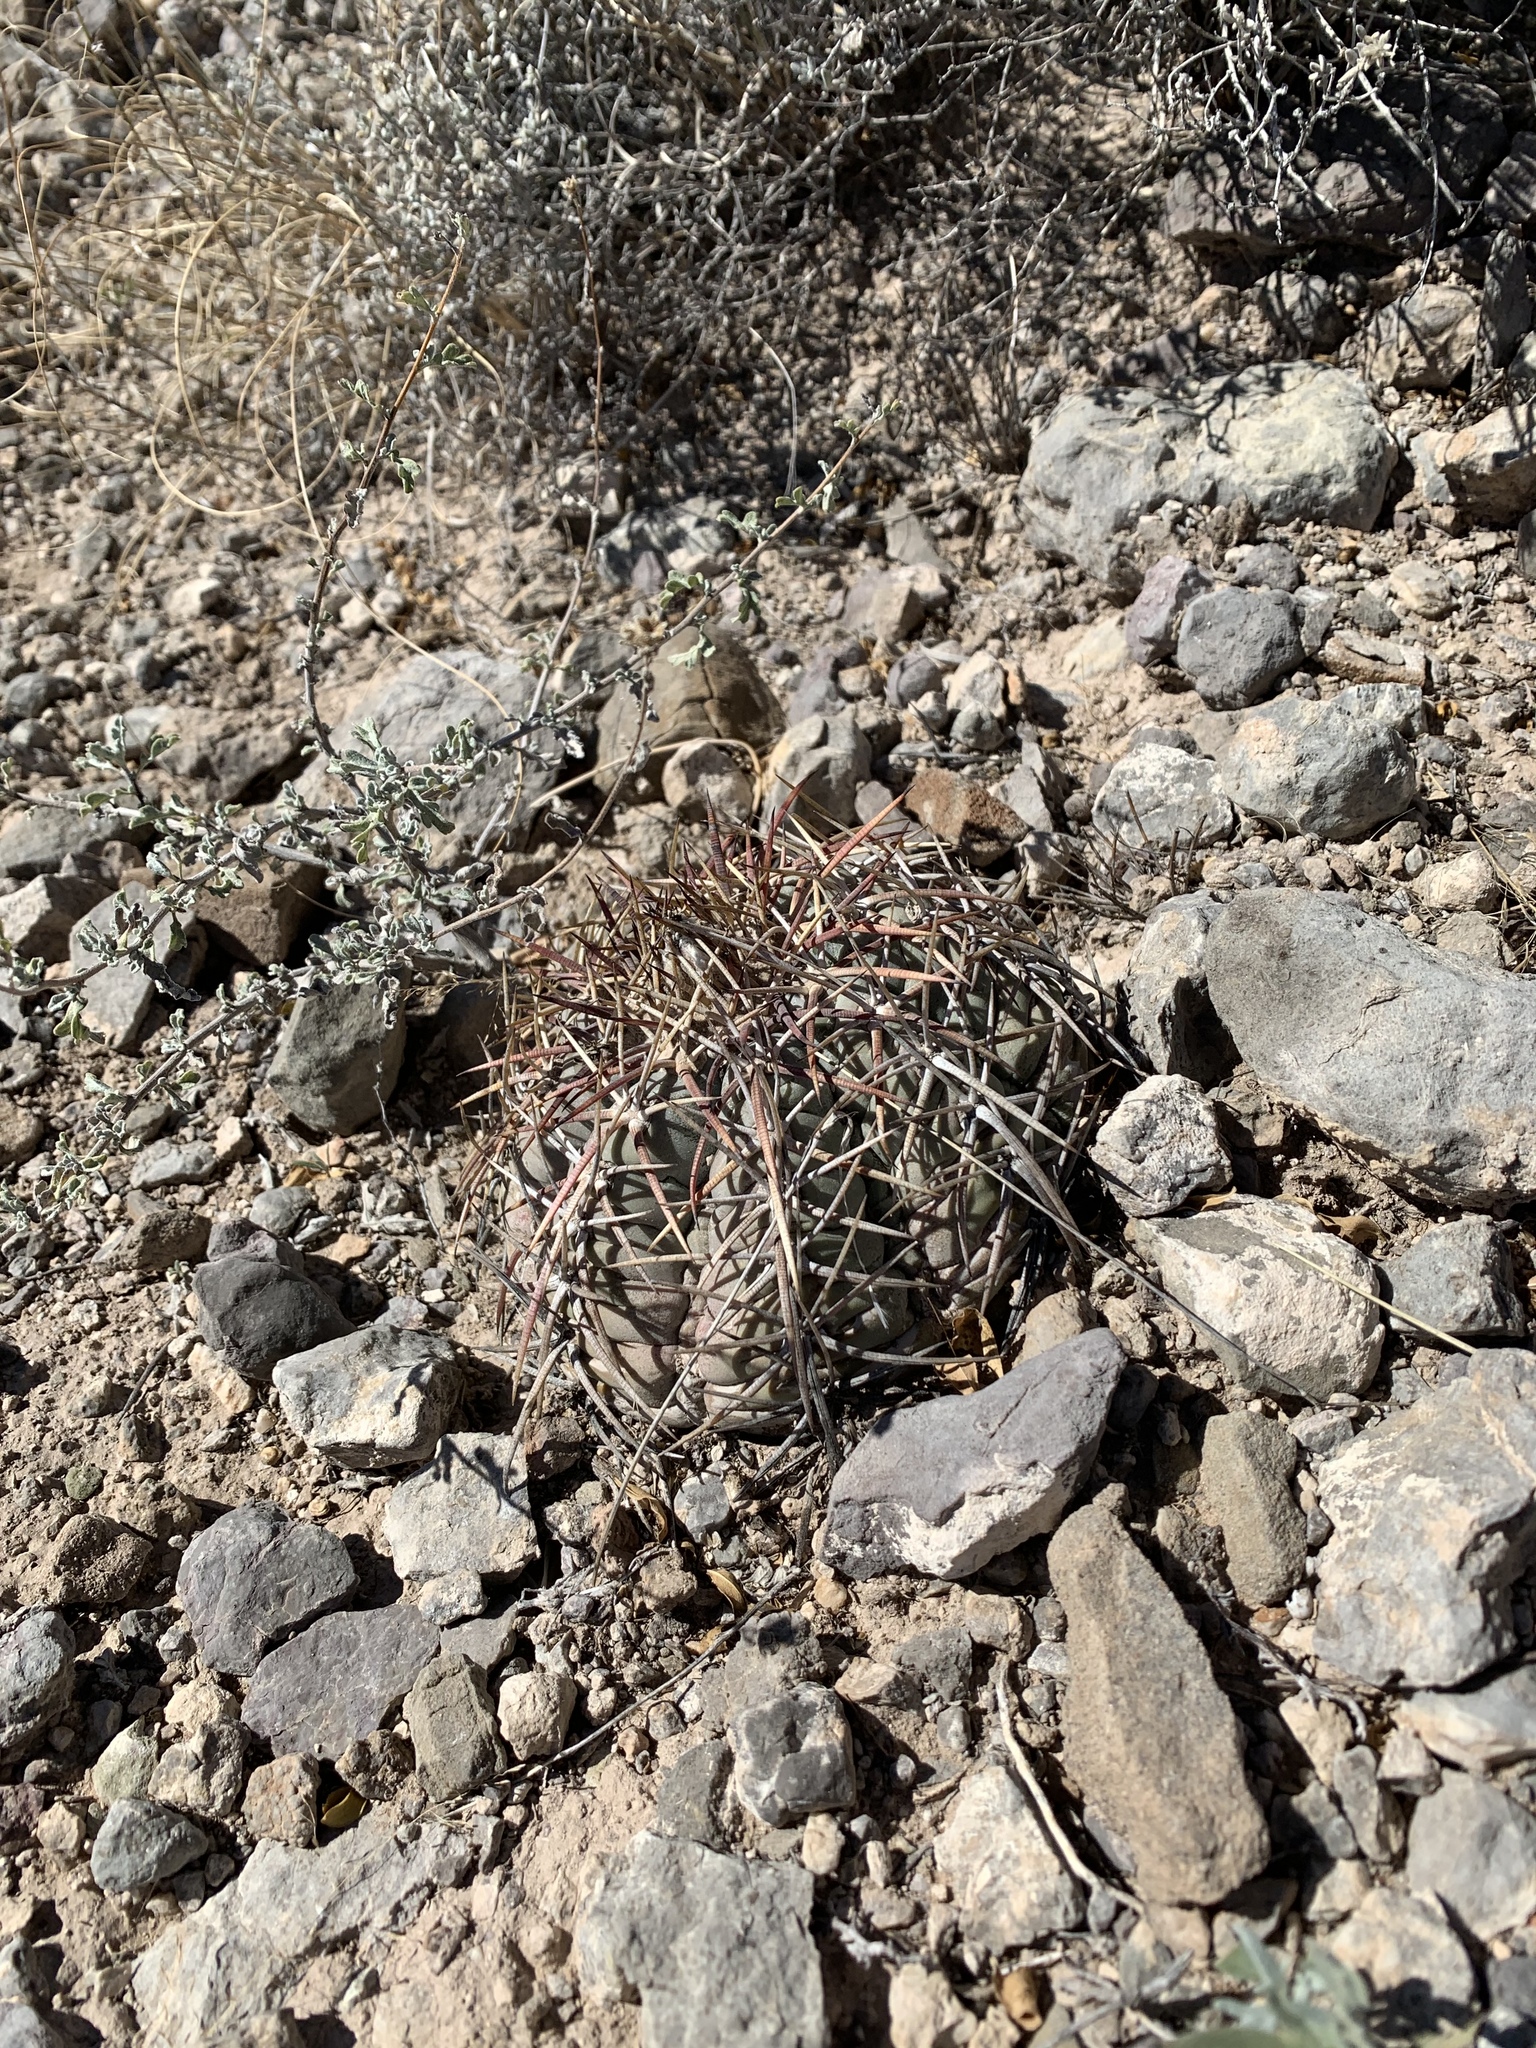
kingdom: Plantae
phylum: Tracheophyta
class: Magnoliopsida
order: Caryophyllales
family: Cactaceae
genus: Echinocactus
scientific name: Echinocactus horizonthalonius
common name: Devilshead
